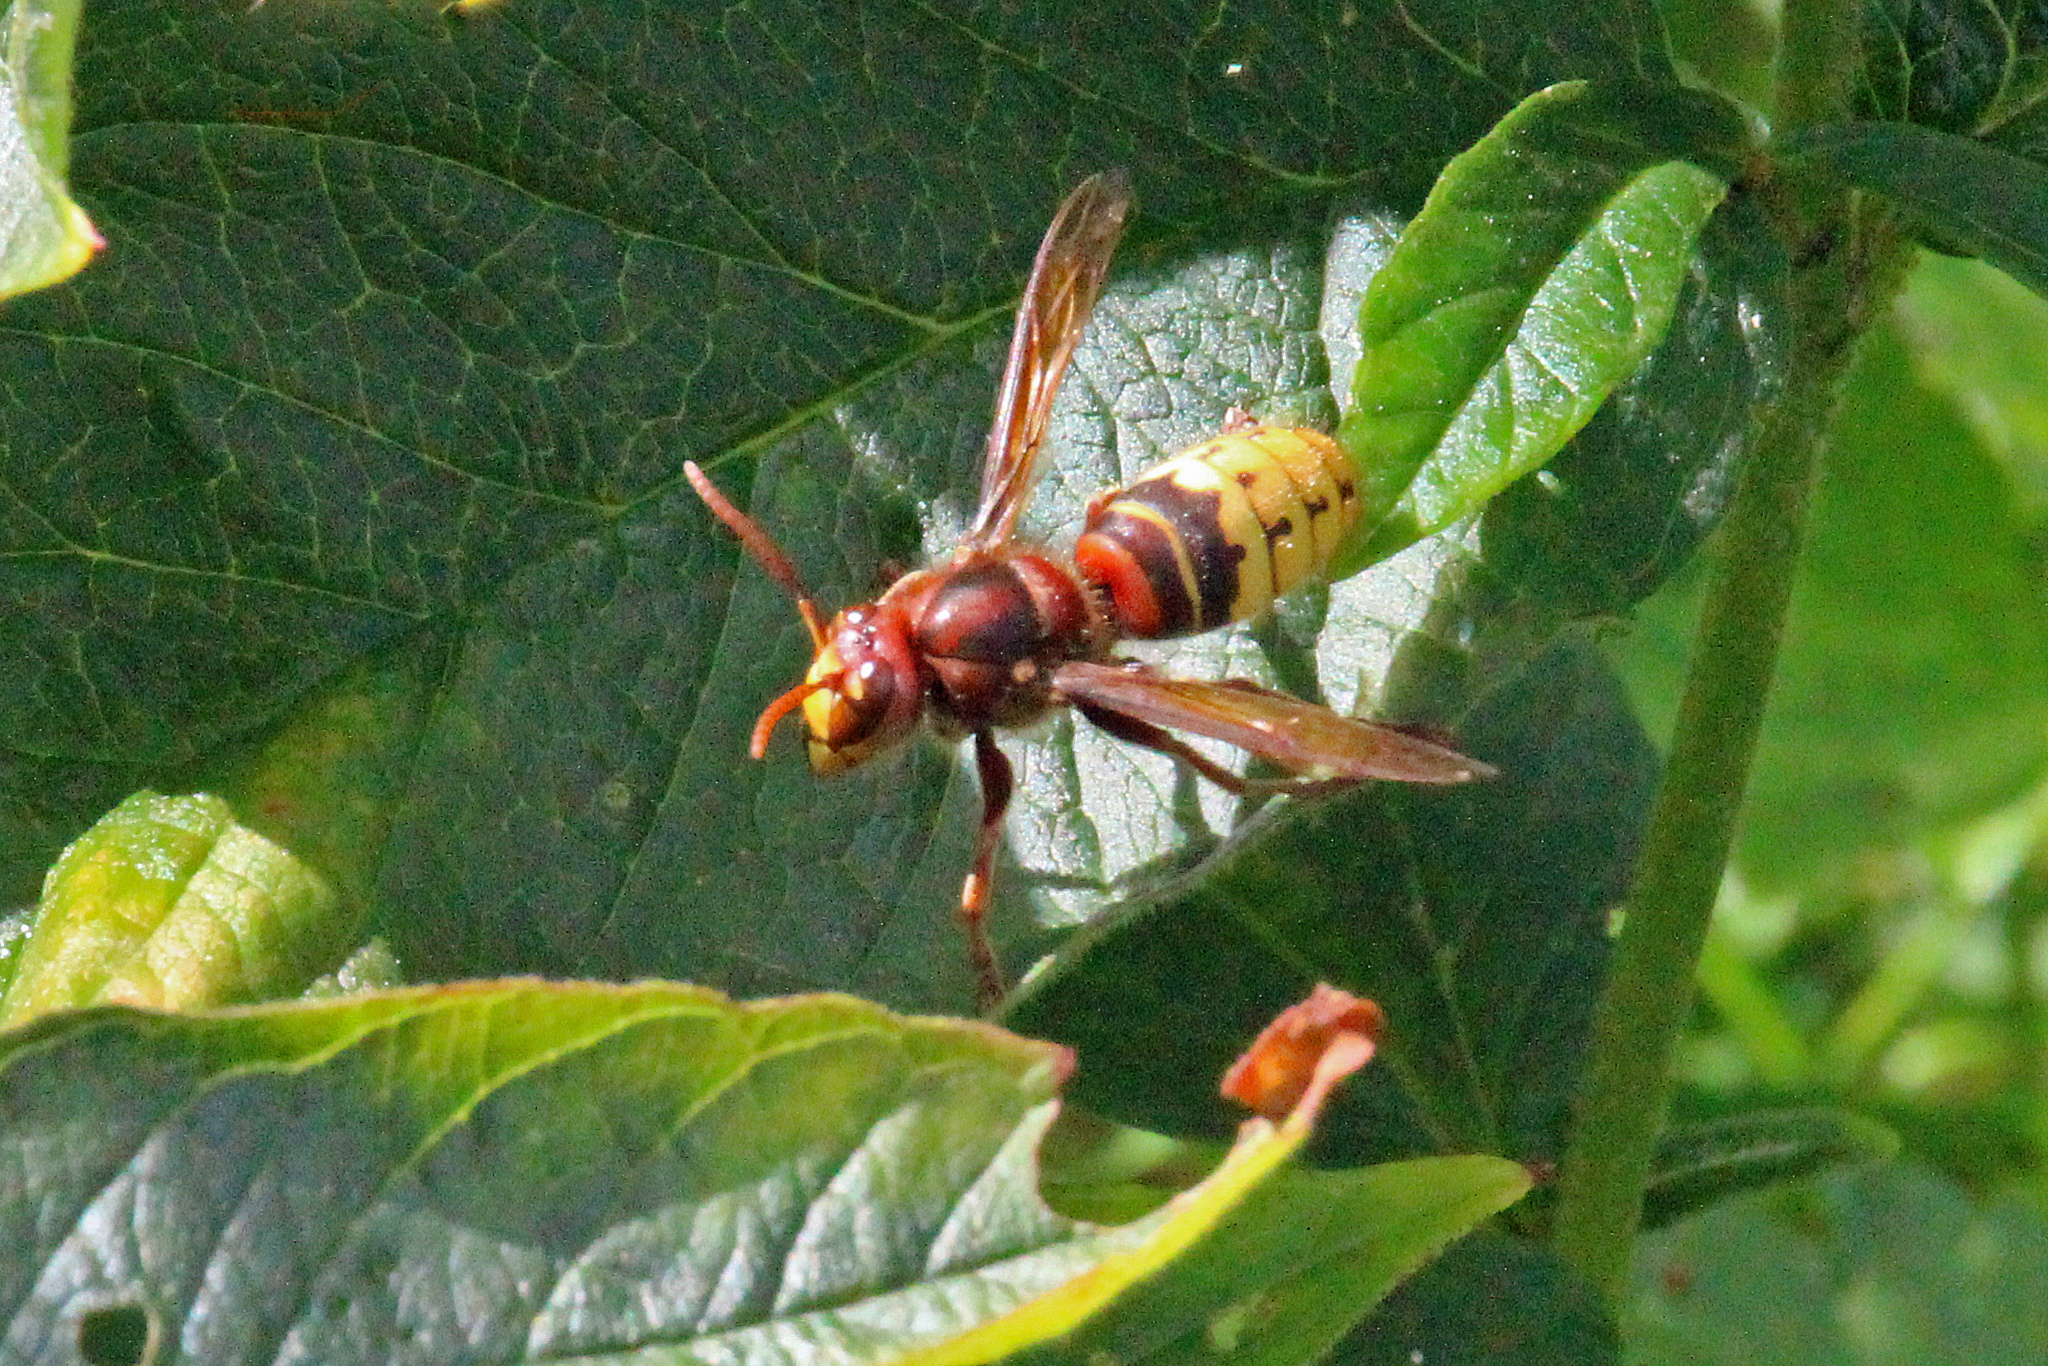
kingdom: Animalia
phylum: Arthropoda
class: Insecta
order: Hymenoptera
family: Vespidae
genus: Vespa
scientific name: Vespa crabro
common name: Hornet
